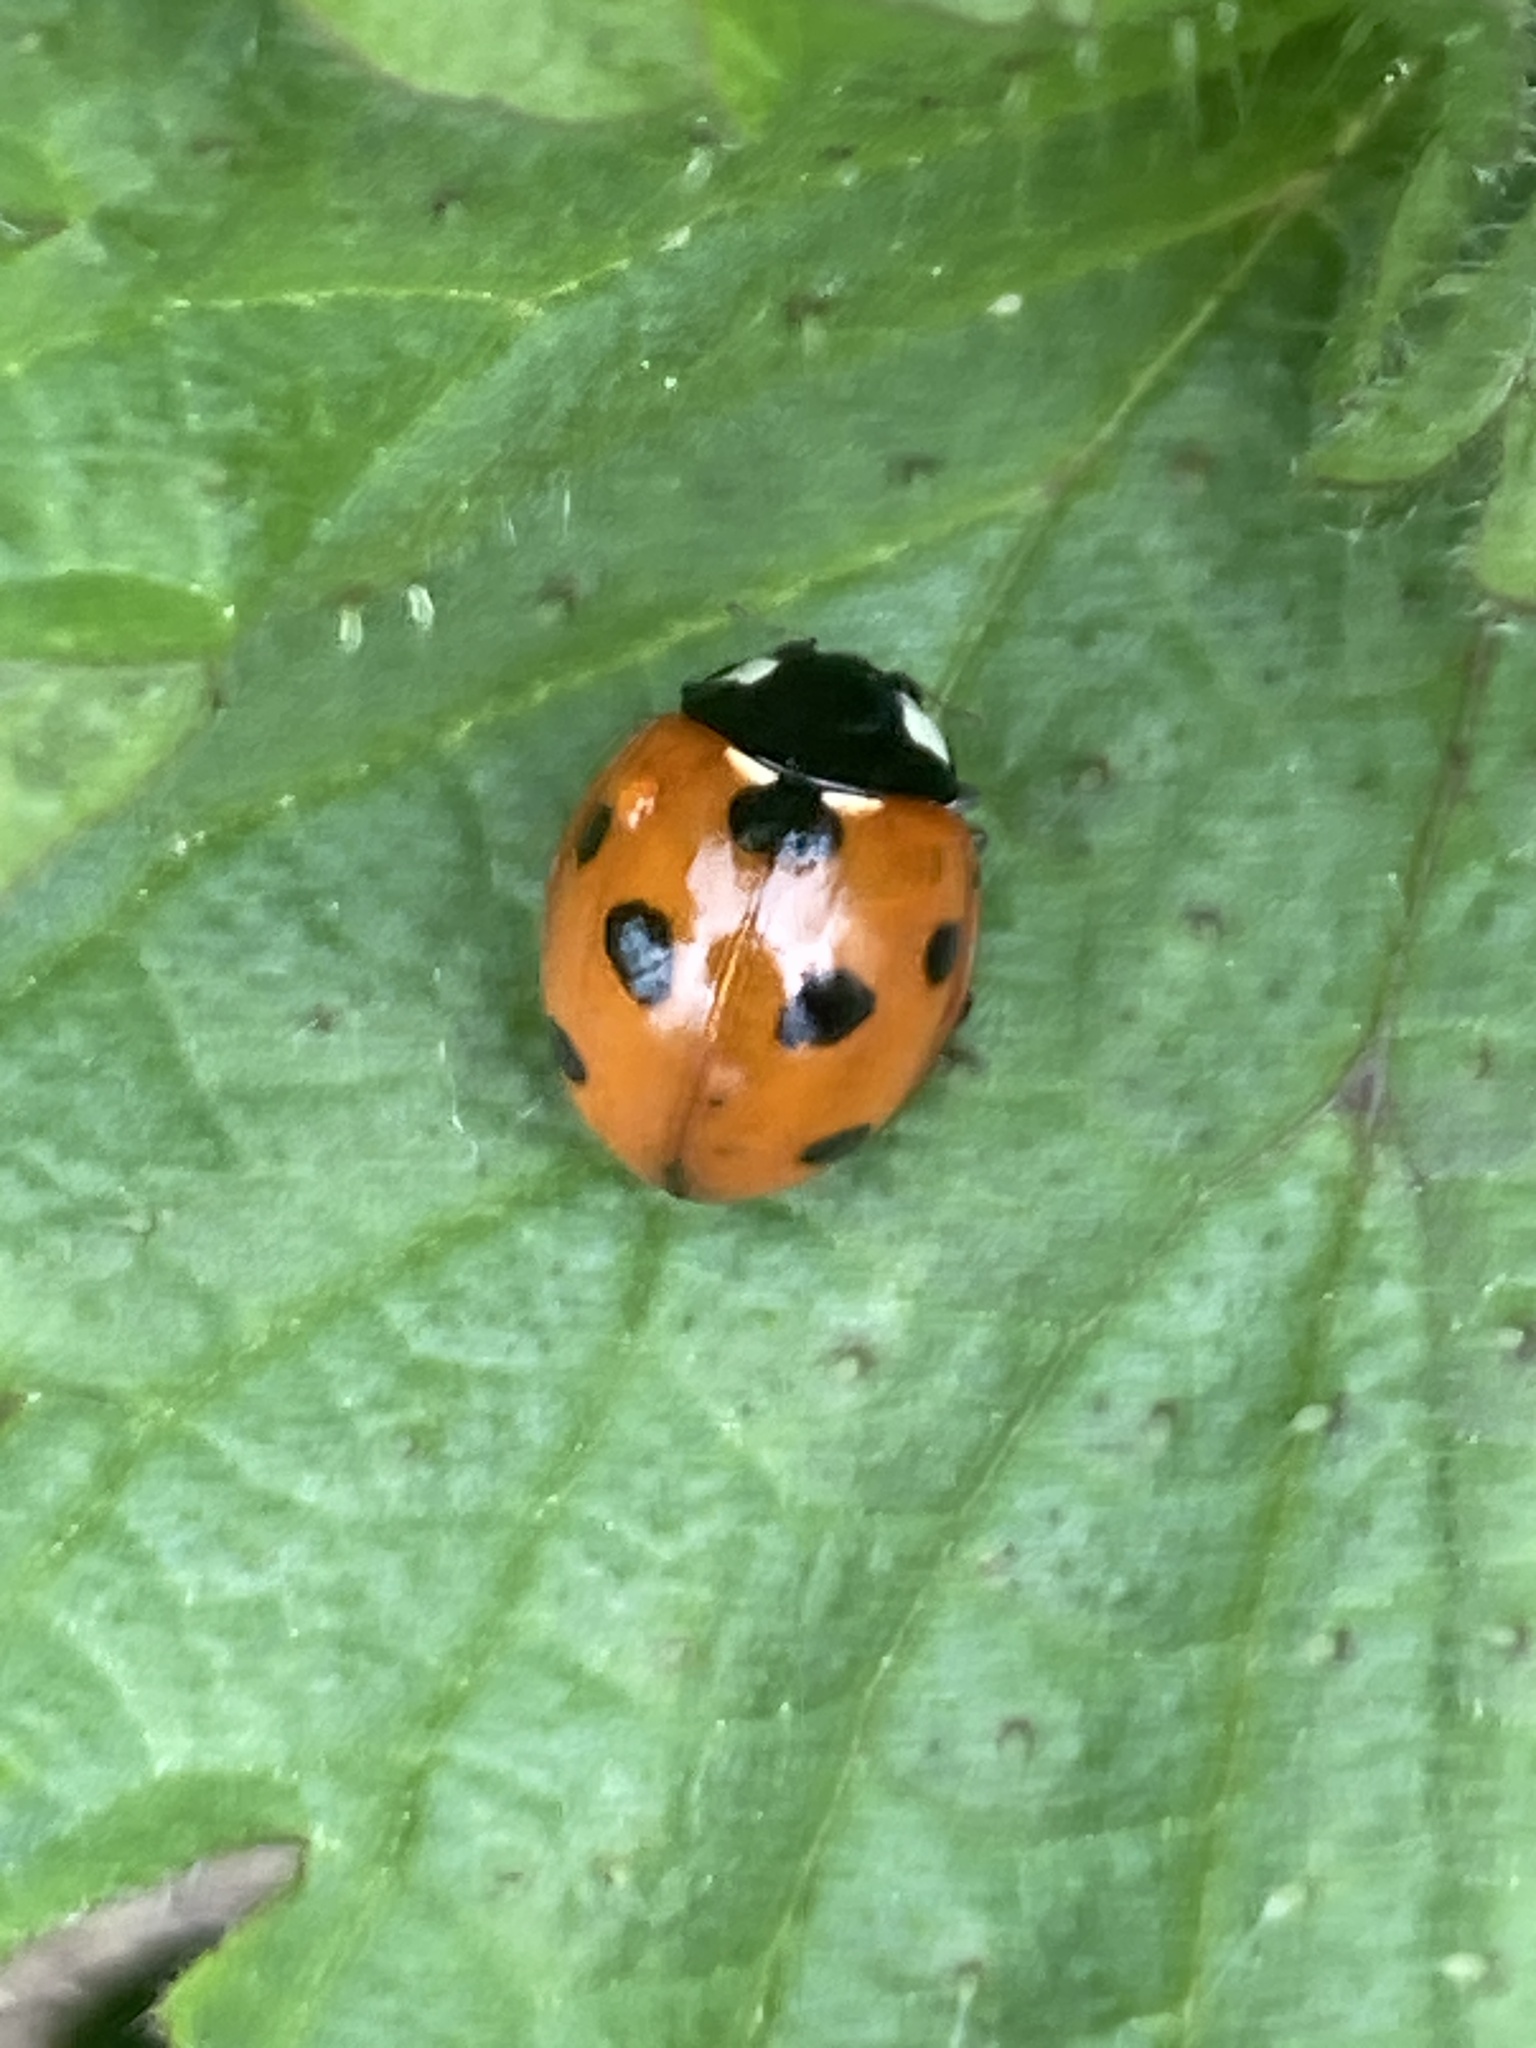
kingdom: Animalia
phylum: Arthropoda
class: Insecta
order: Coleoptera
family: Coccinellidae
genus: Coccinella
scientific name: Coccinella septempunctata
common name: Sevenspotted lady beetle
